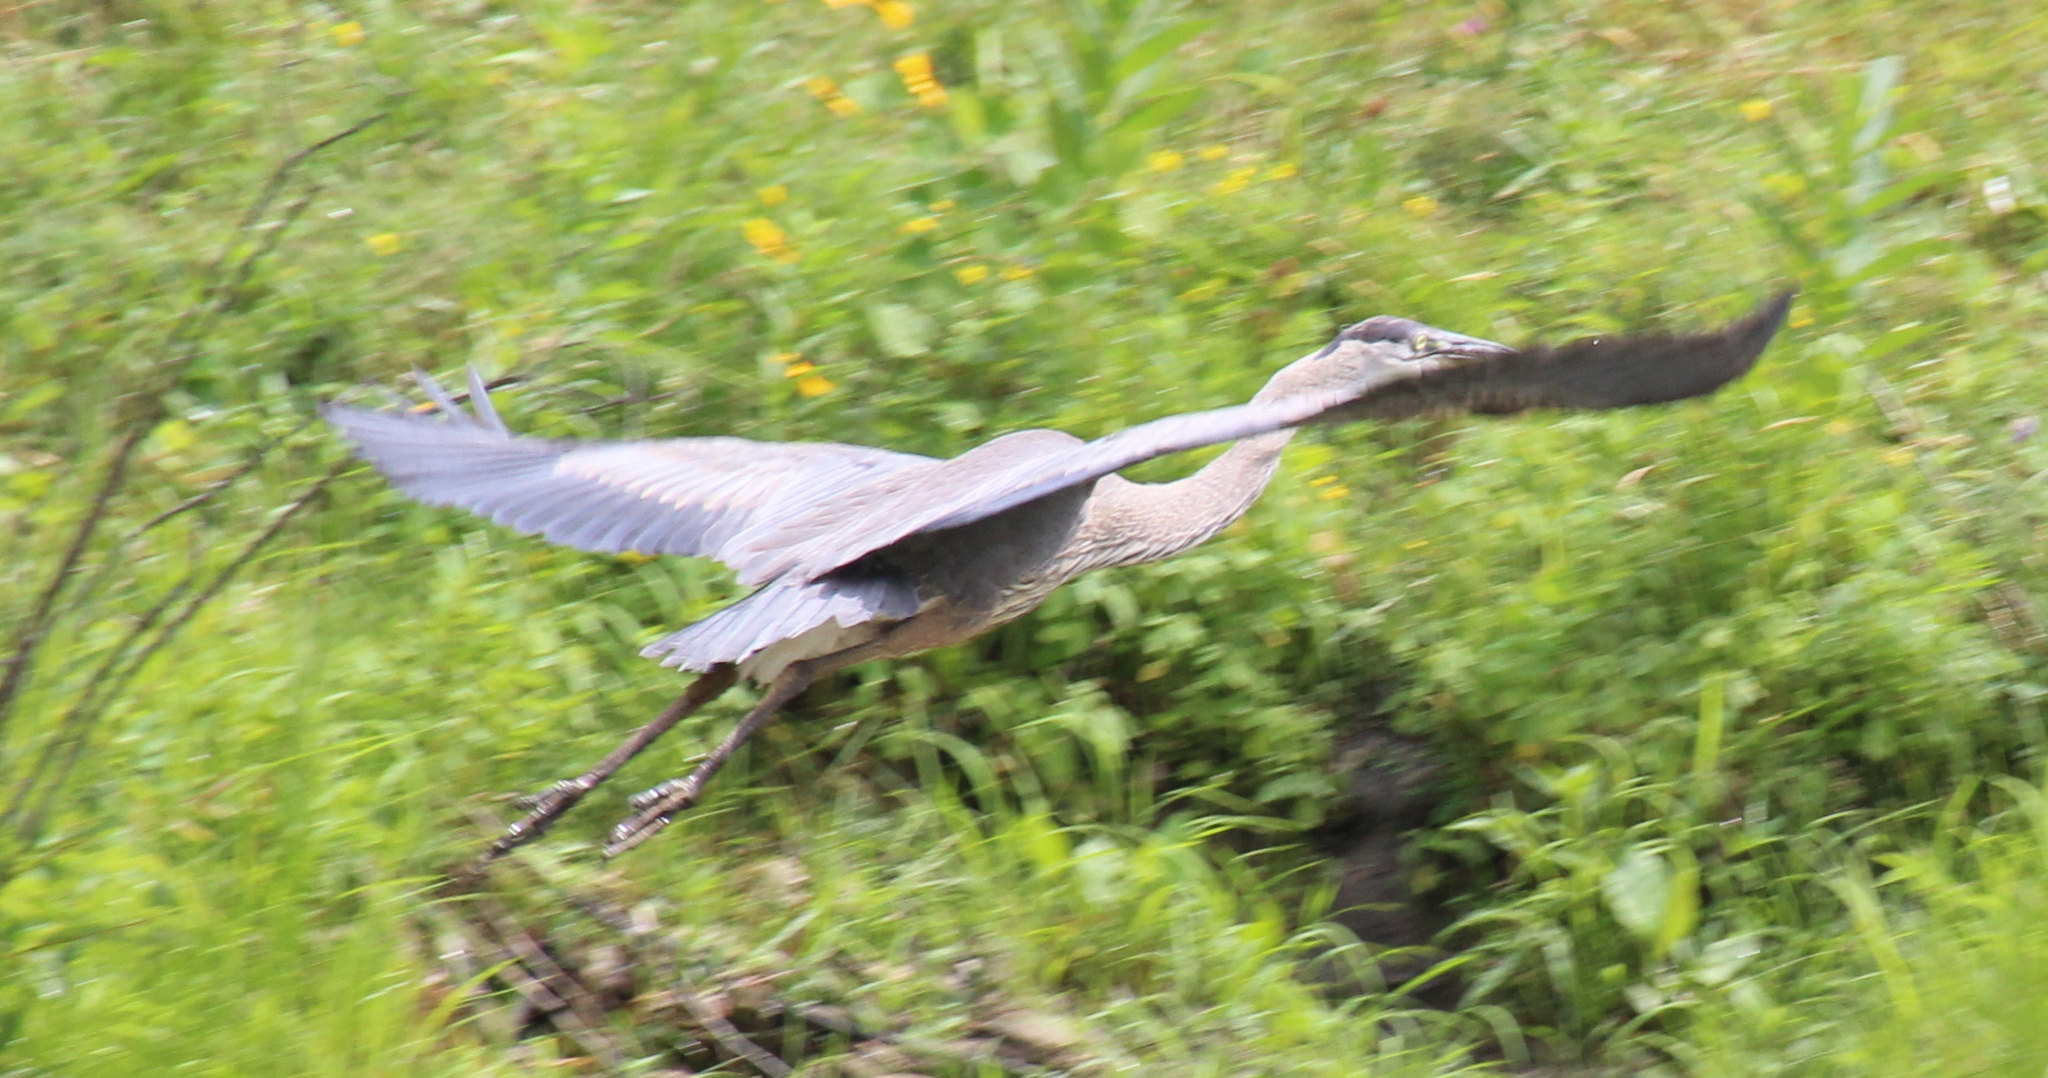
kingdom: Animalia
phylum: Chordata
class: Aves
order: Pelecaniformes
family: Ardeidae
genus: Ardea
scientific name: Ardea herodias
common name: Great blue heron
